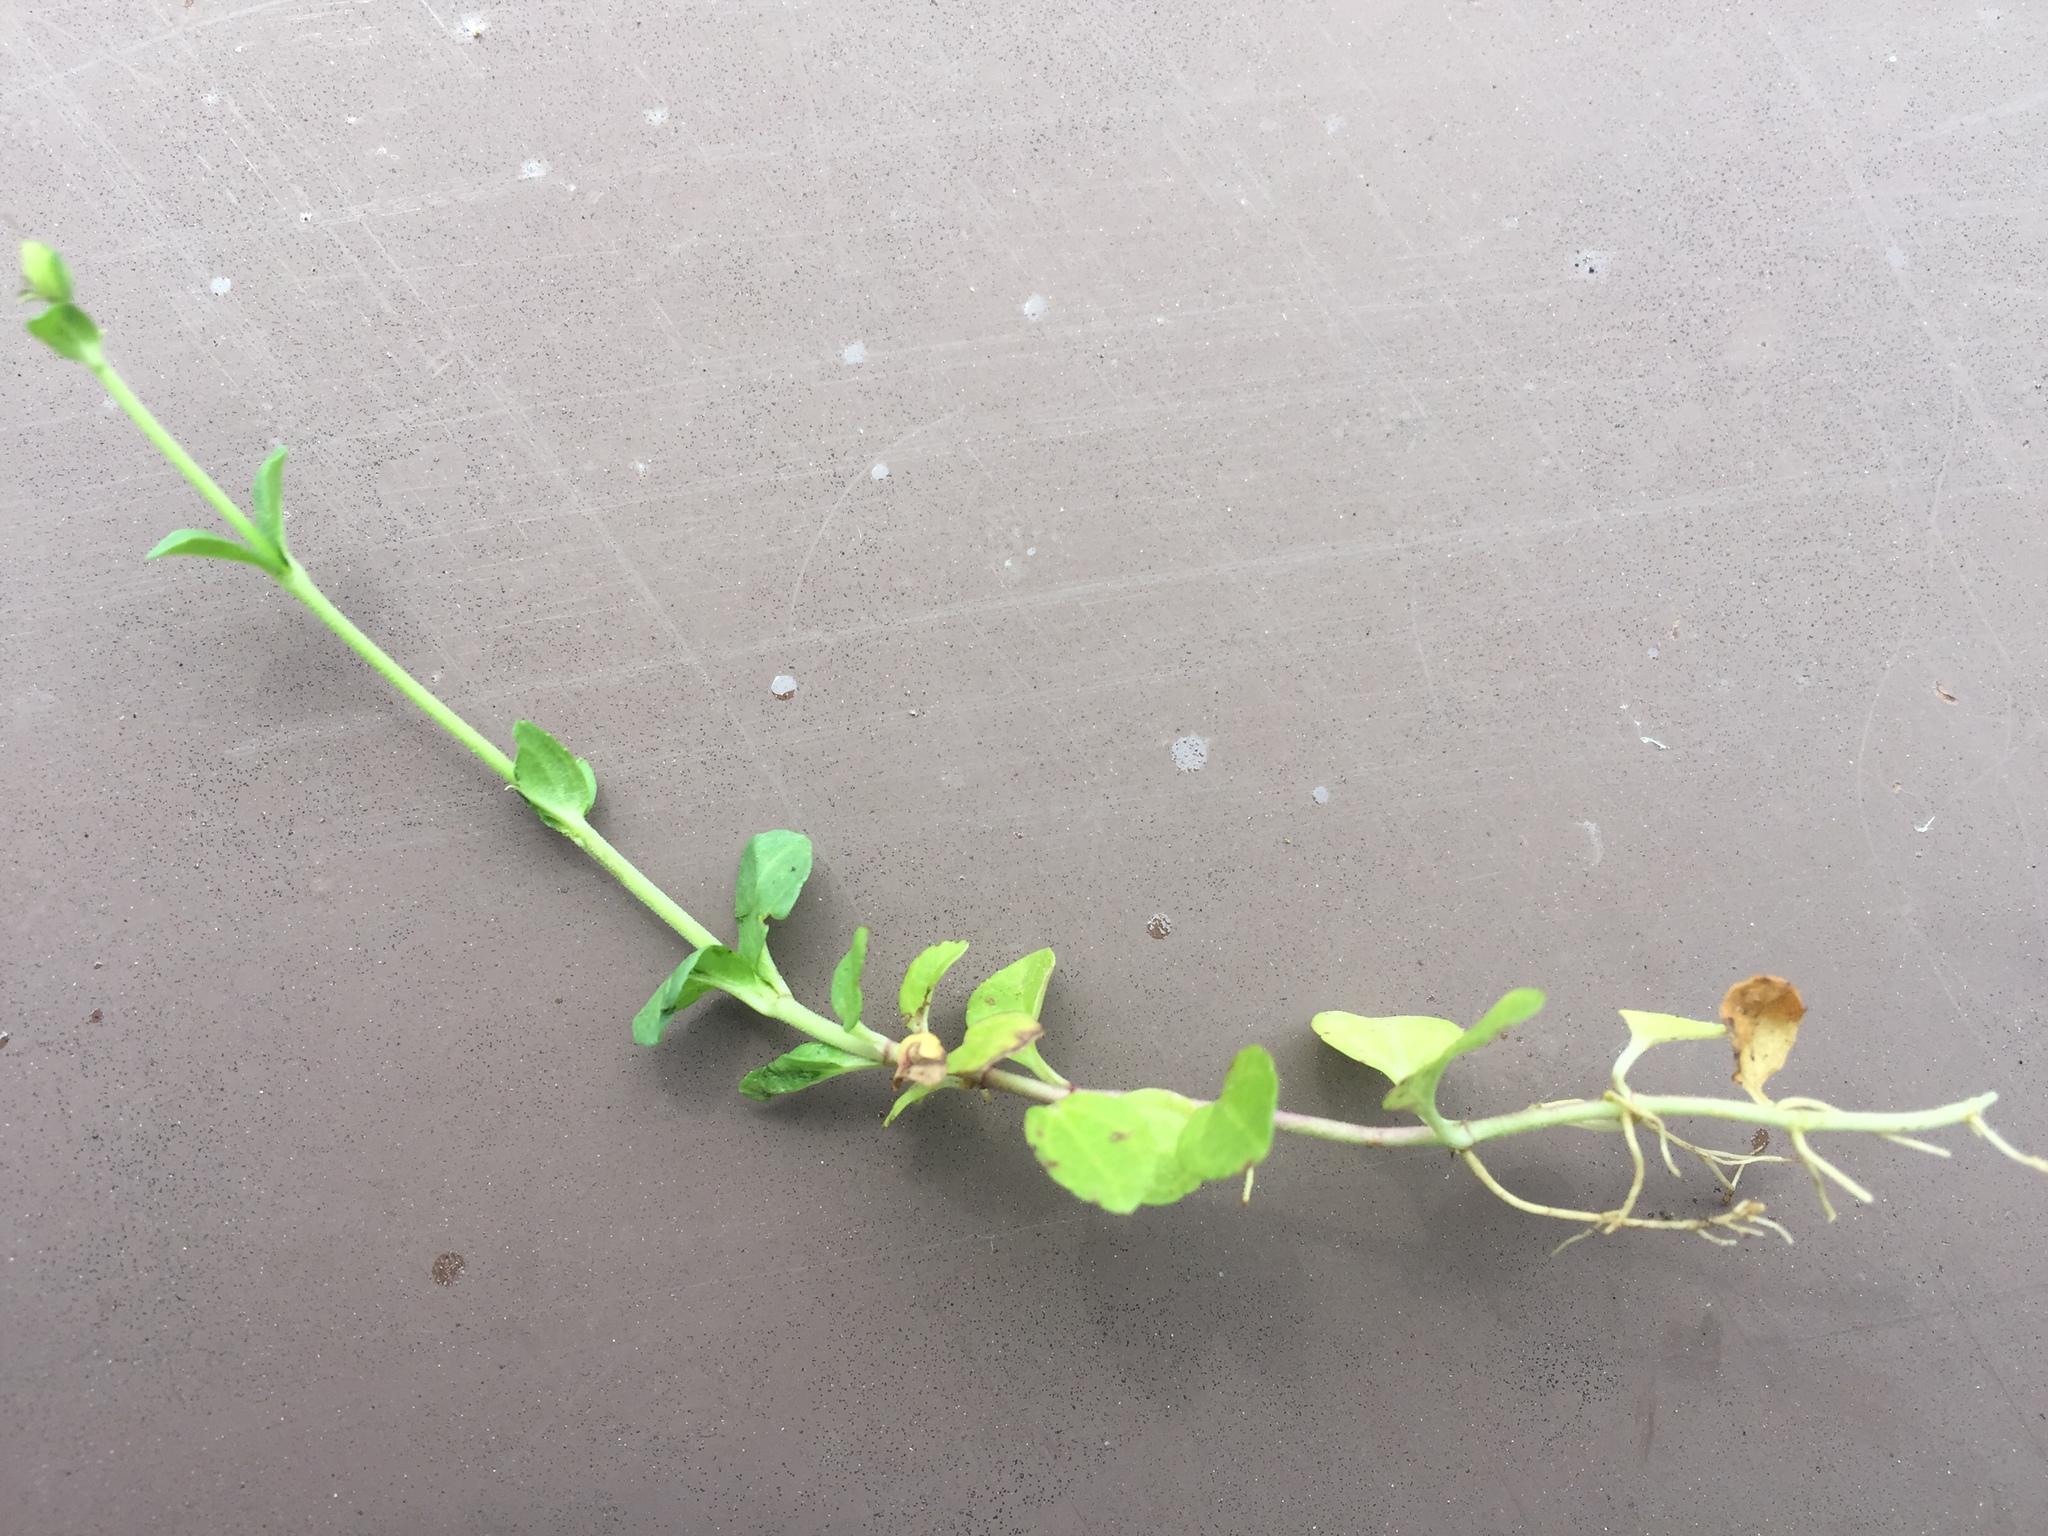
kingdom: Plantae
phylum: Tracheophyta
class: Magnoliopsida
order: Lamiales
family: Plantaginaceae
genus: Veronica
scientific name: Veronica serpyllifolia
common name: Thyme-leaved speedwell
